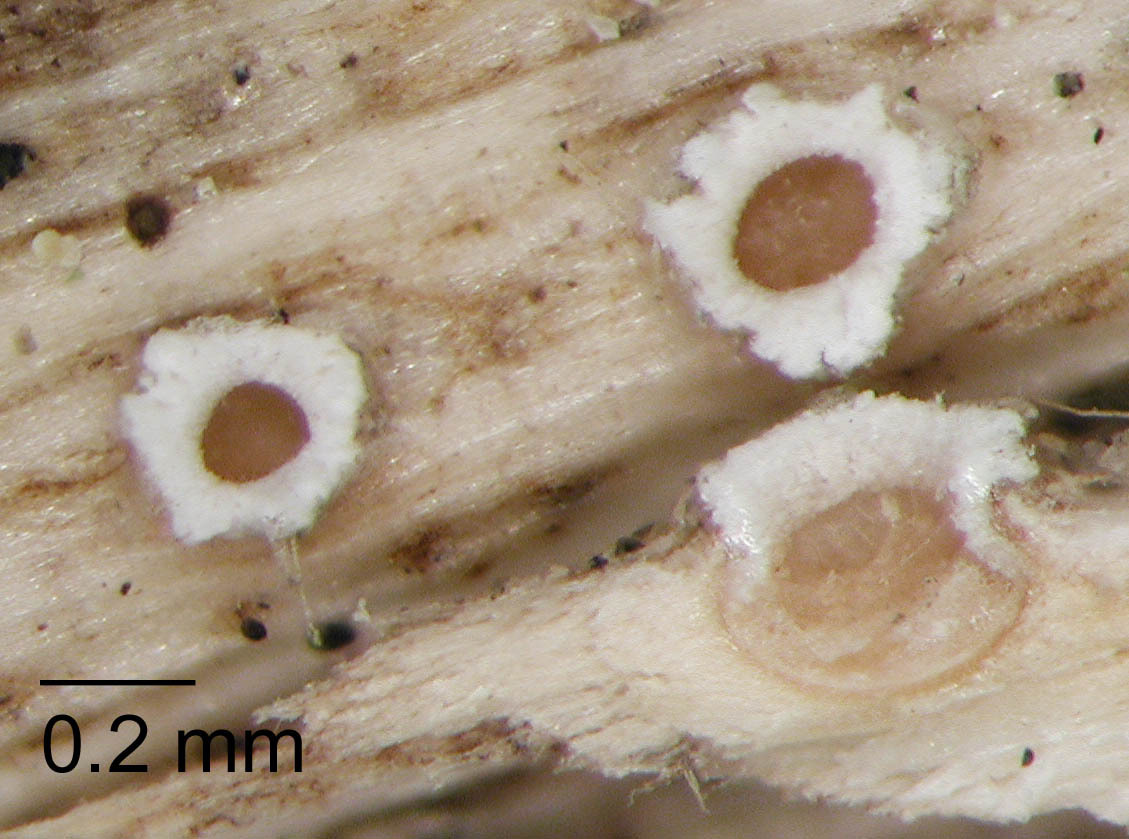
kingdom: Fungi
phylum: Ascomycota
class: Lecanoromycetes
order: Ostropales
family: Stictidaceae
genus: Stictis
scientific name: Stictis cordylines
